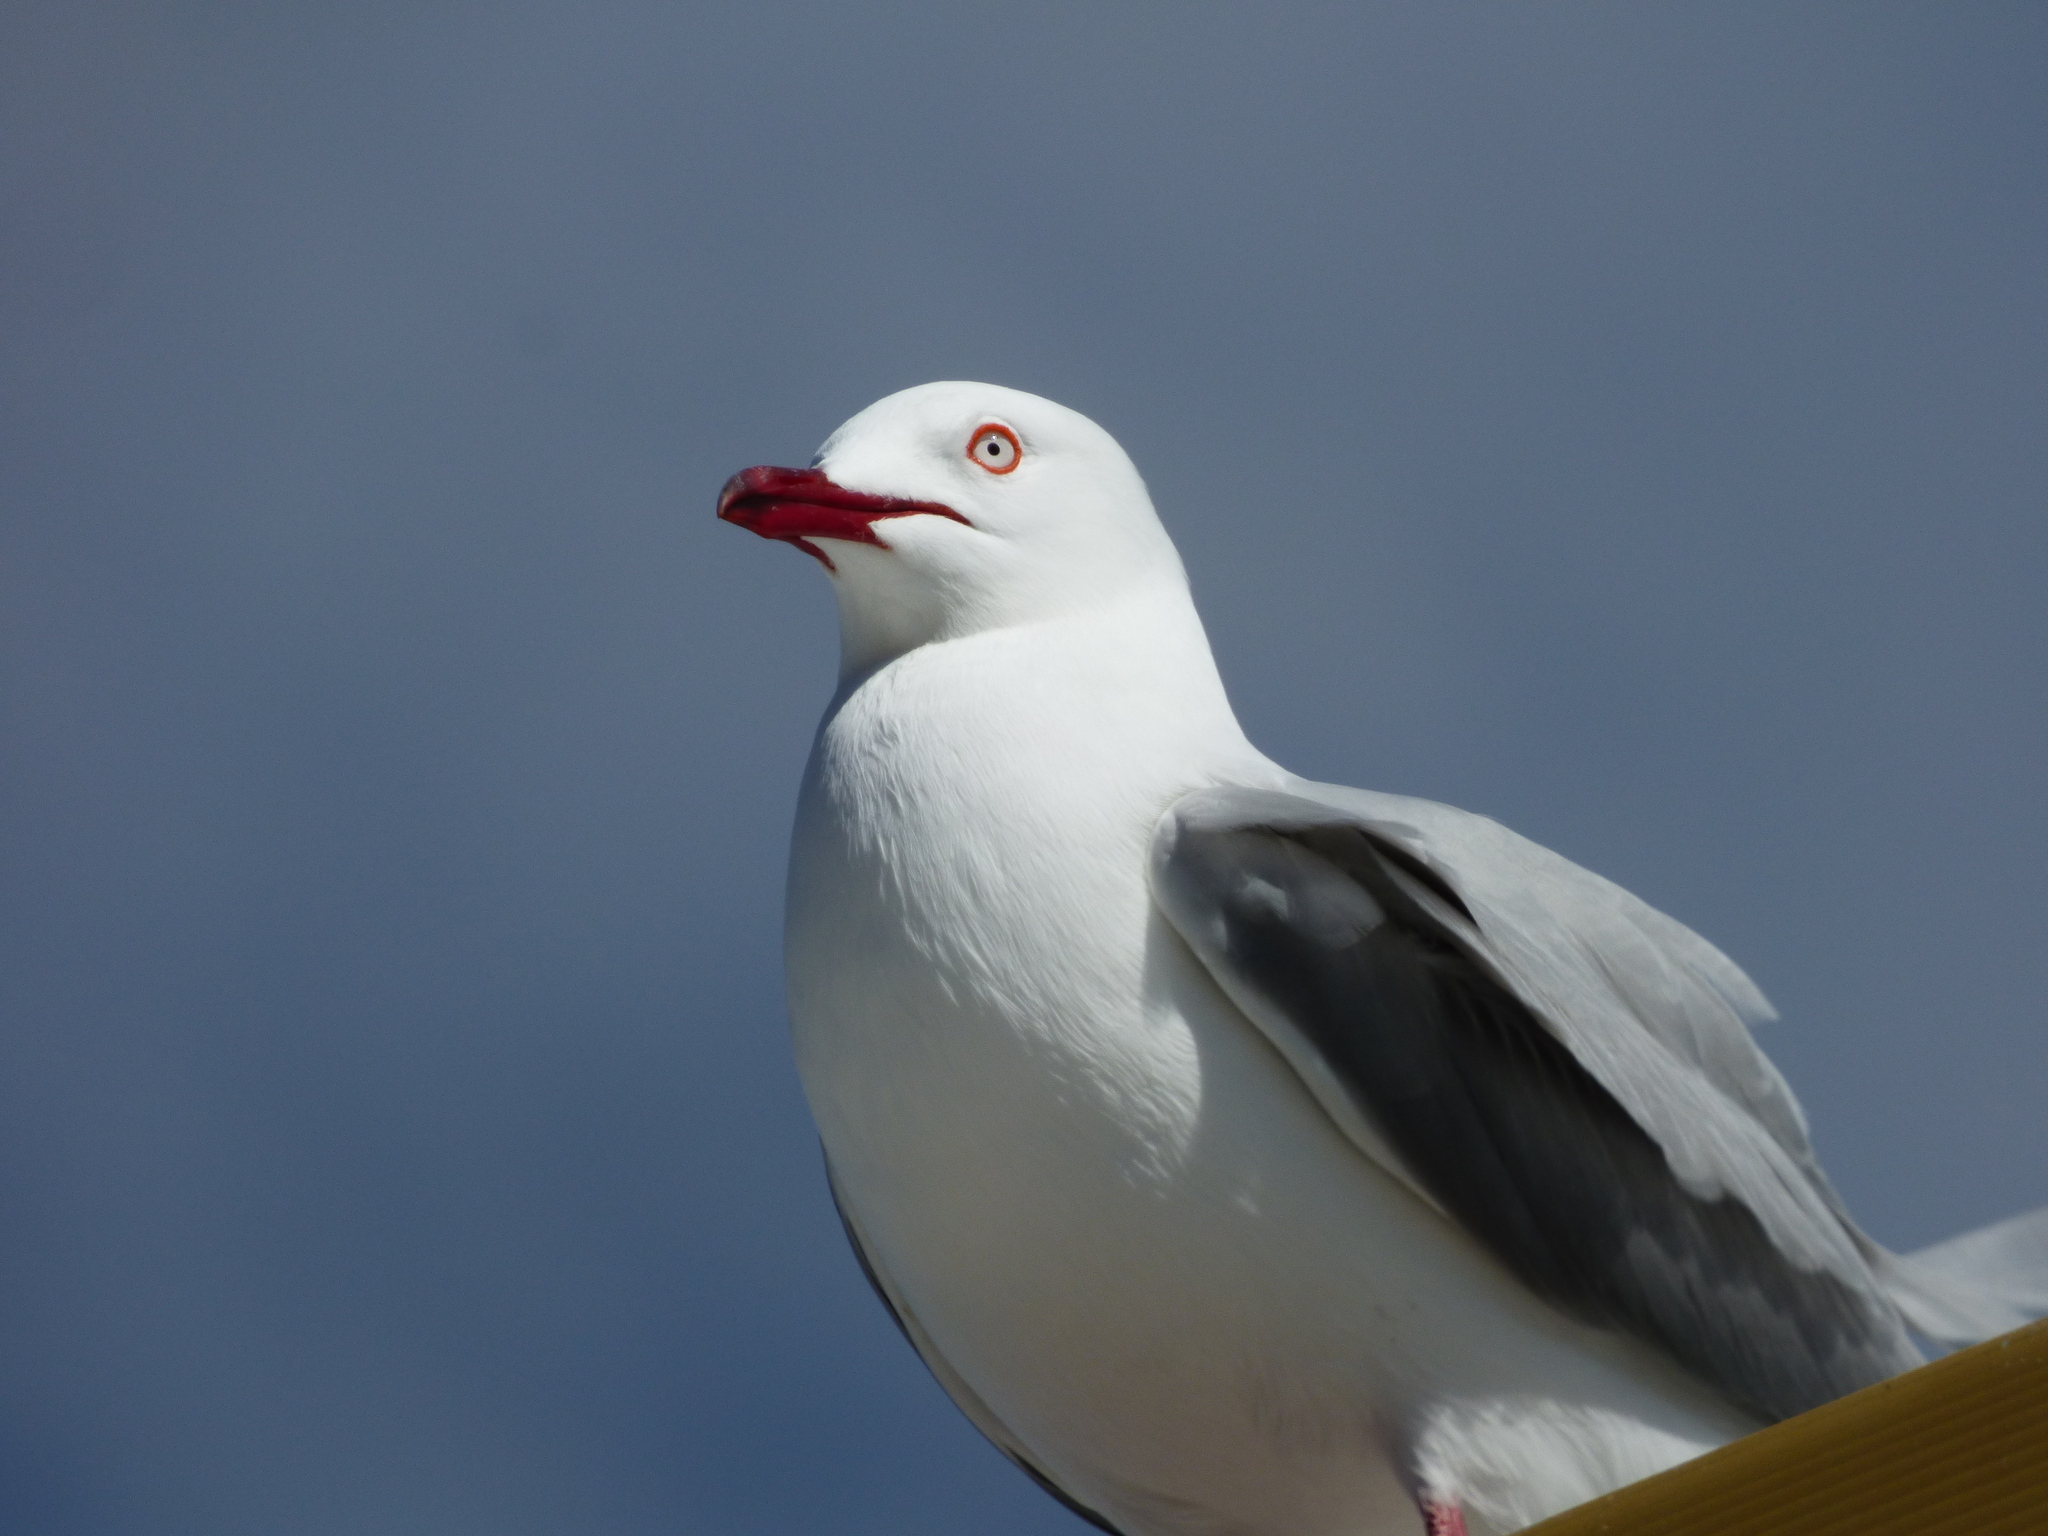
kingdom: Animalia
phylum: Chordata
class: Aves
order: Charadriiformes
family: Laridae
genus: Chroicocephalus
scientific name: Chroicocephalus novaehollandiae
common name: Silver gull
